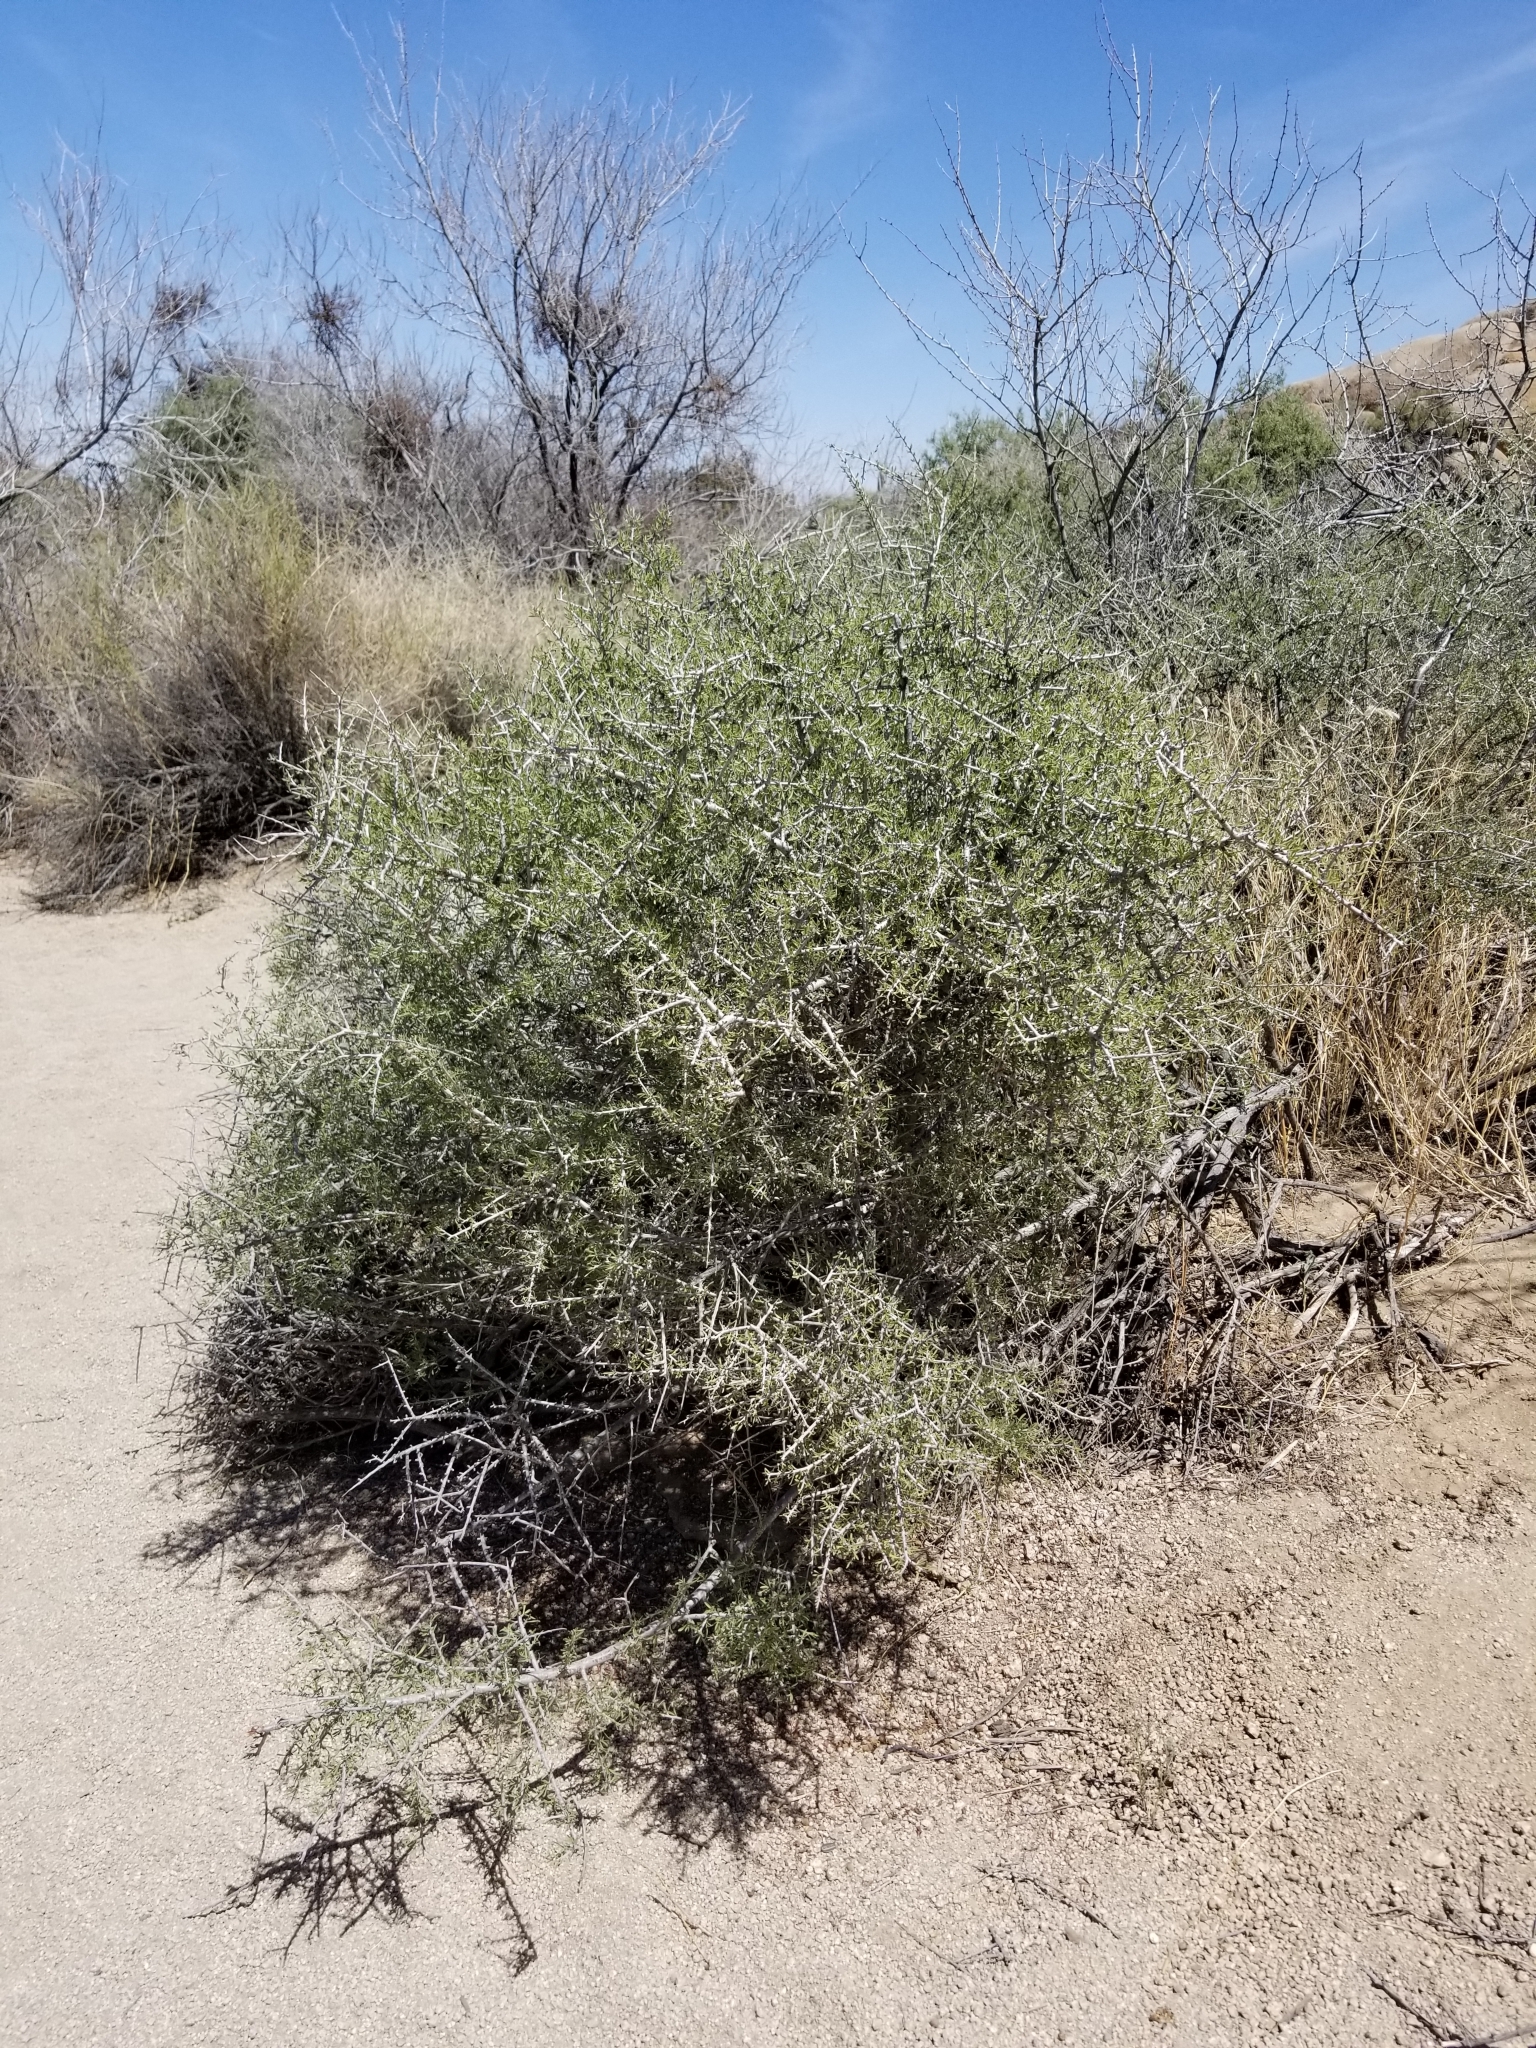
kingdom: Plantae
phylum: Tracheophyta
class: Magnoliopsida
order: Rosales
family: Rosaceae
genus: Prunus
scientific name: Prunus fasciculata
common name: Desert almond
